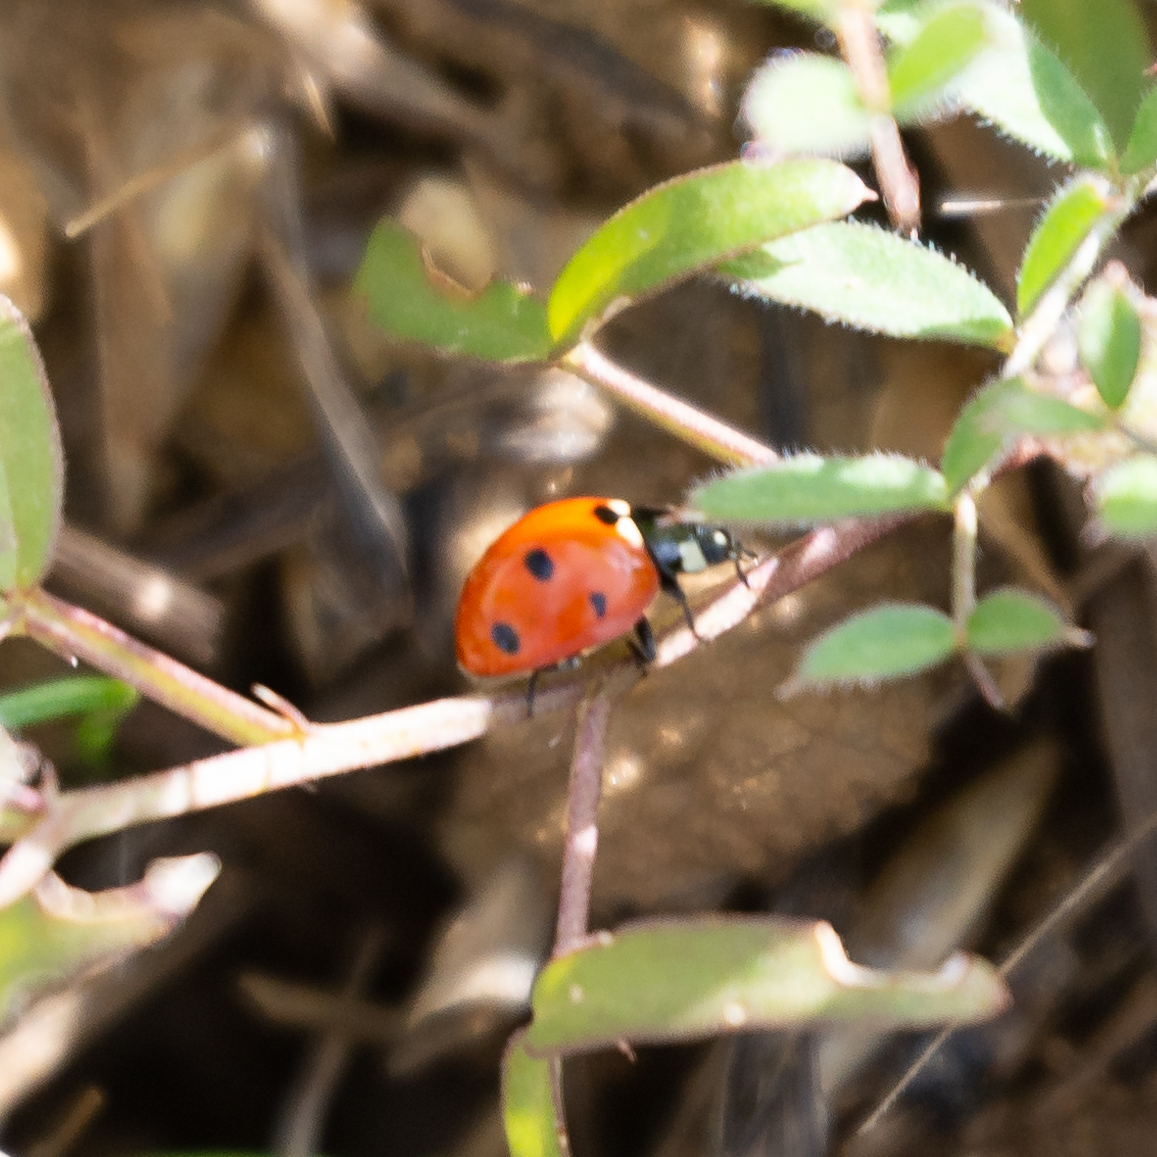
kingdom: Animalia
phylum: Arthropoda
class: Insecta
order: Coleoptera
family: Coccinellidae
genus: Coccinella
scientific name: Coccinella septempunctata
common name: Sevenspotted lady beetle
